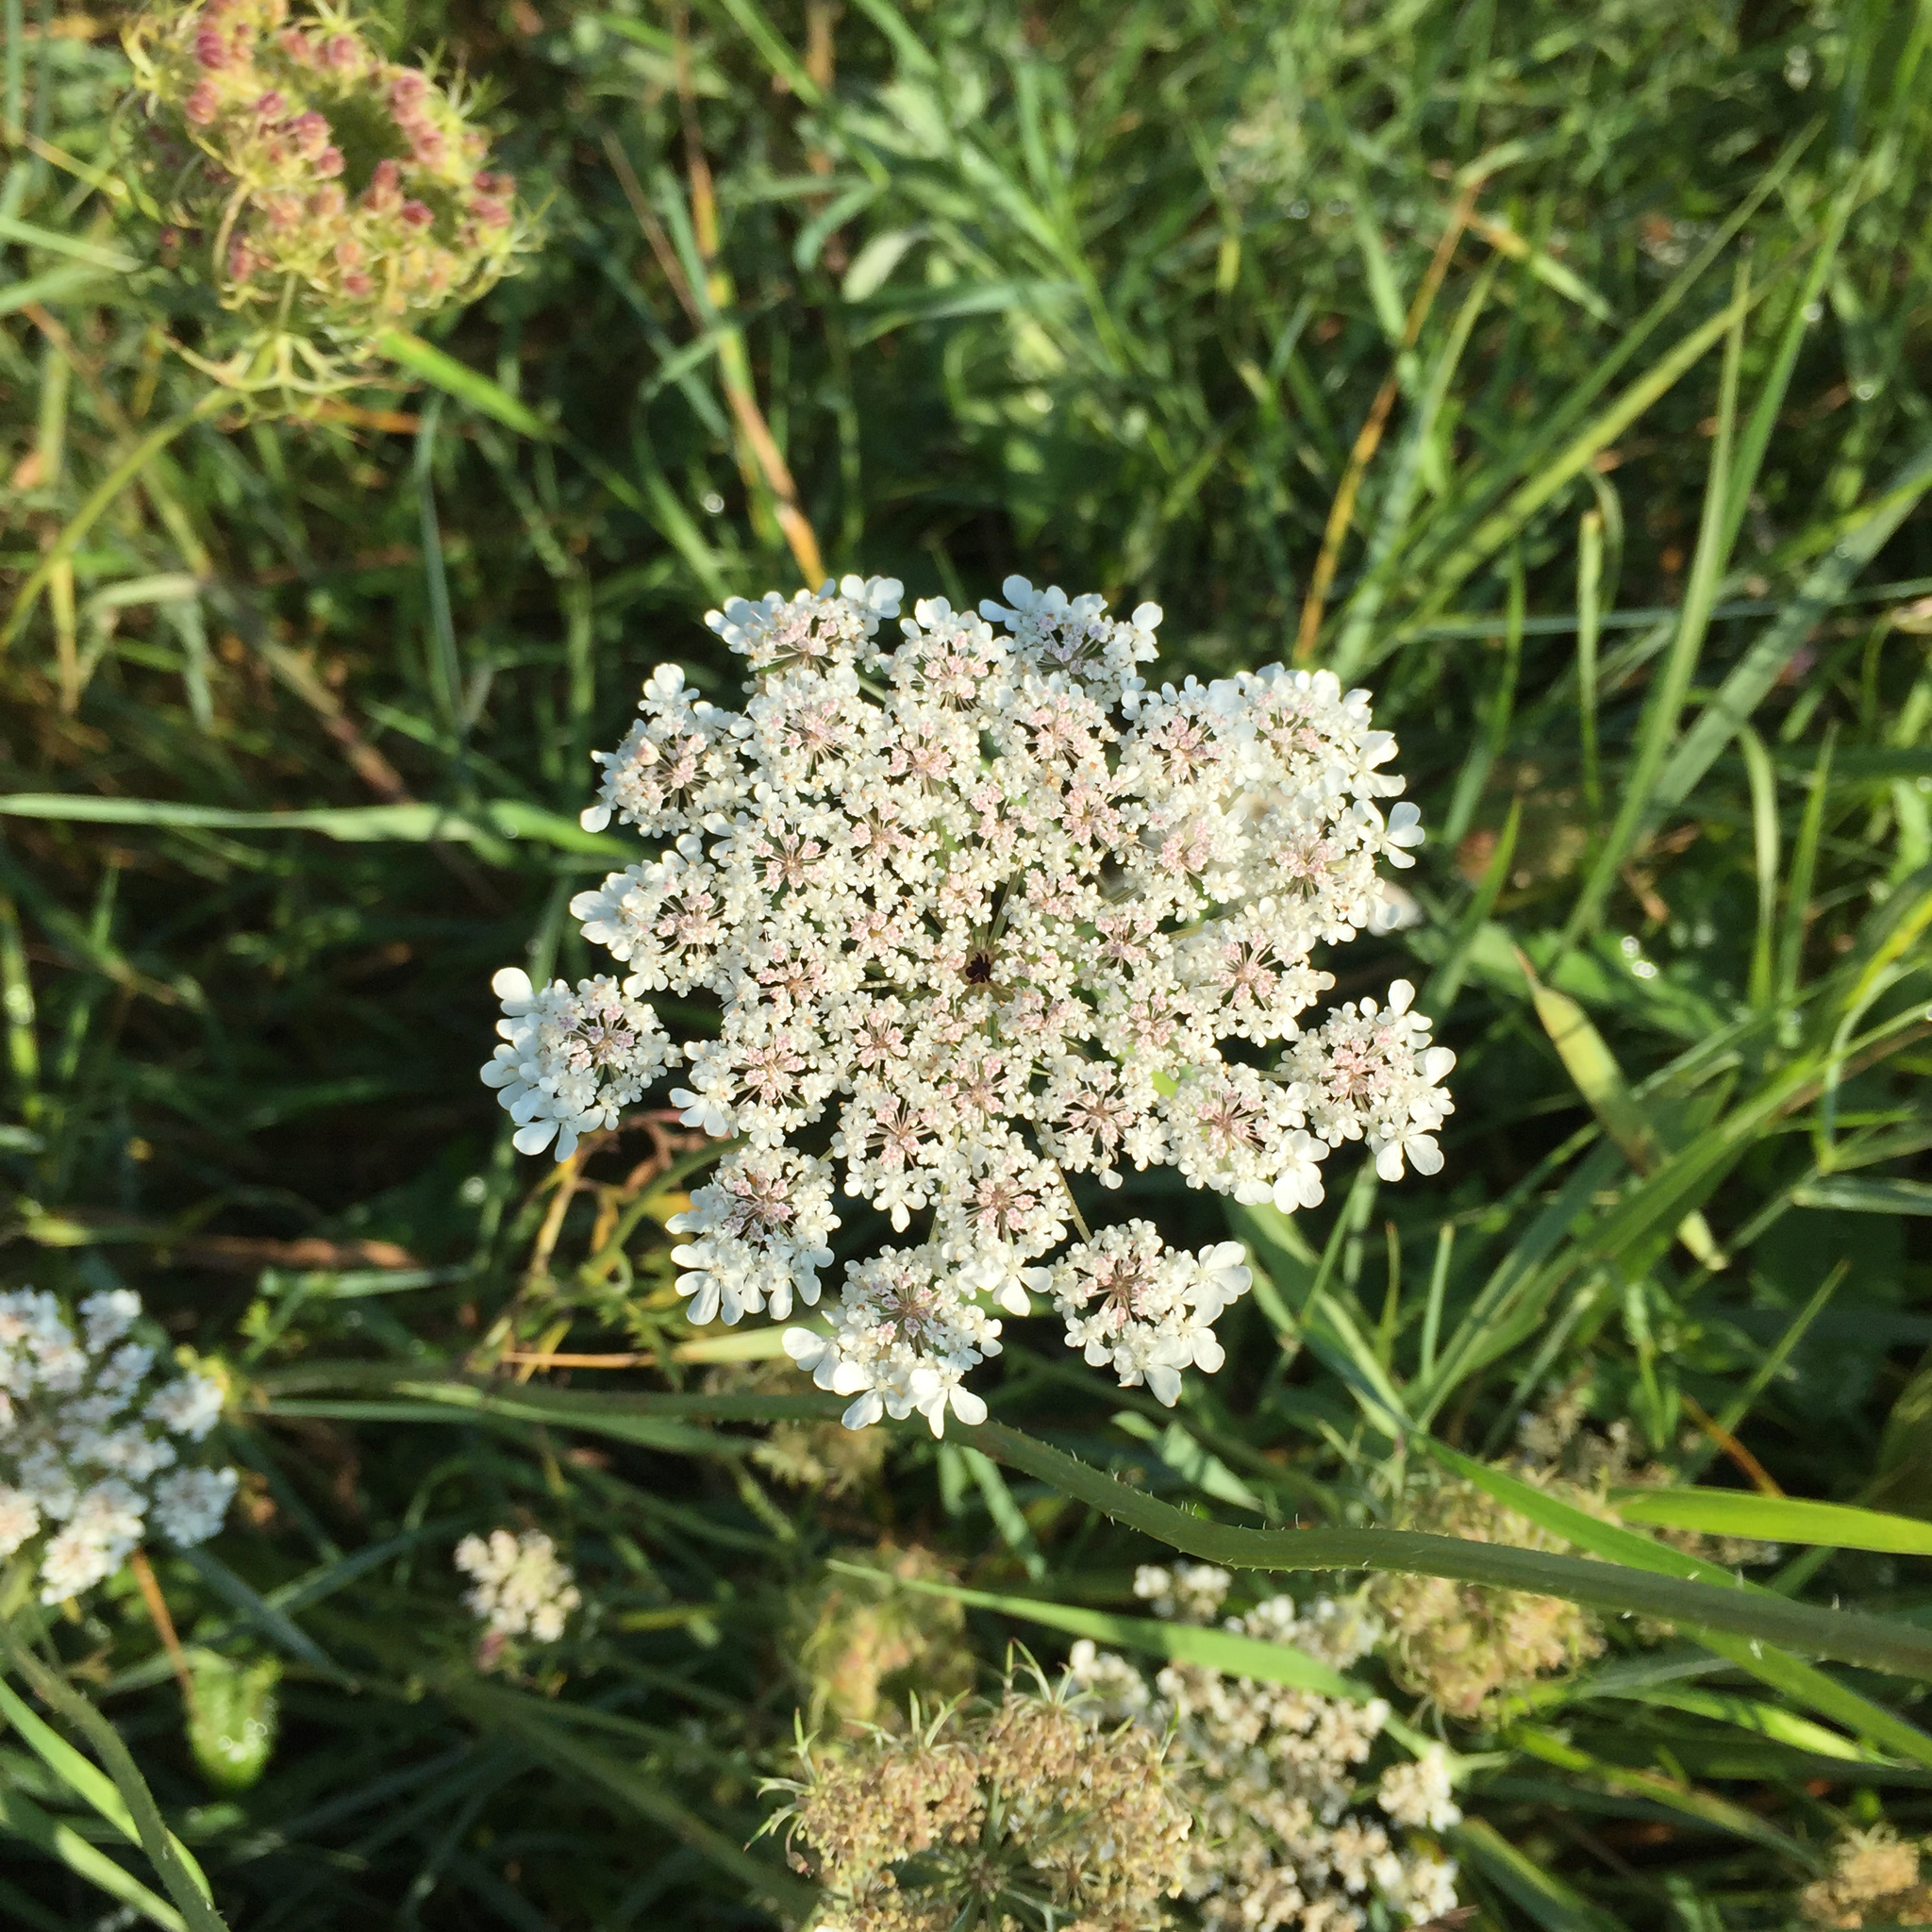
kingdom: Plantae
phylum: Tracheophyta
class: Magnoliopsida
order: Apiales
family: Apiaceae
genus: Daucus
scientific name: Daucus carota
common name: Wild carrot
